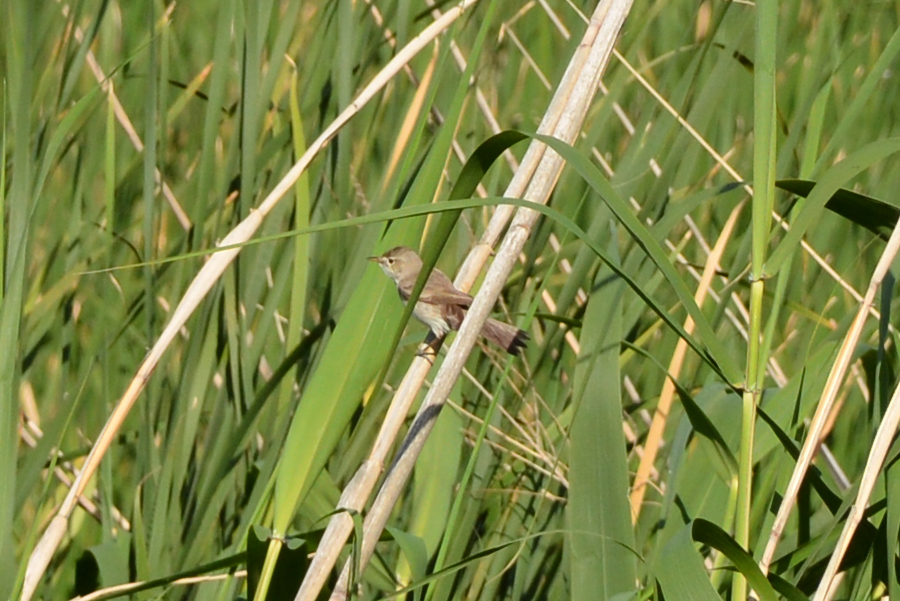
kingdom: Animalia
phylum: Chordata
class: Aves
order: Passeriformes
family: Acrocephalidae
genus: Acrocephalus
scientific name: Acrocephalus scirpaceus
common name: Eurasian reed warbler
